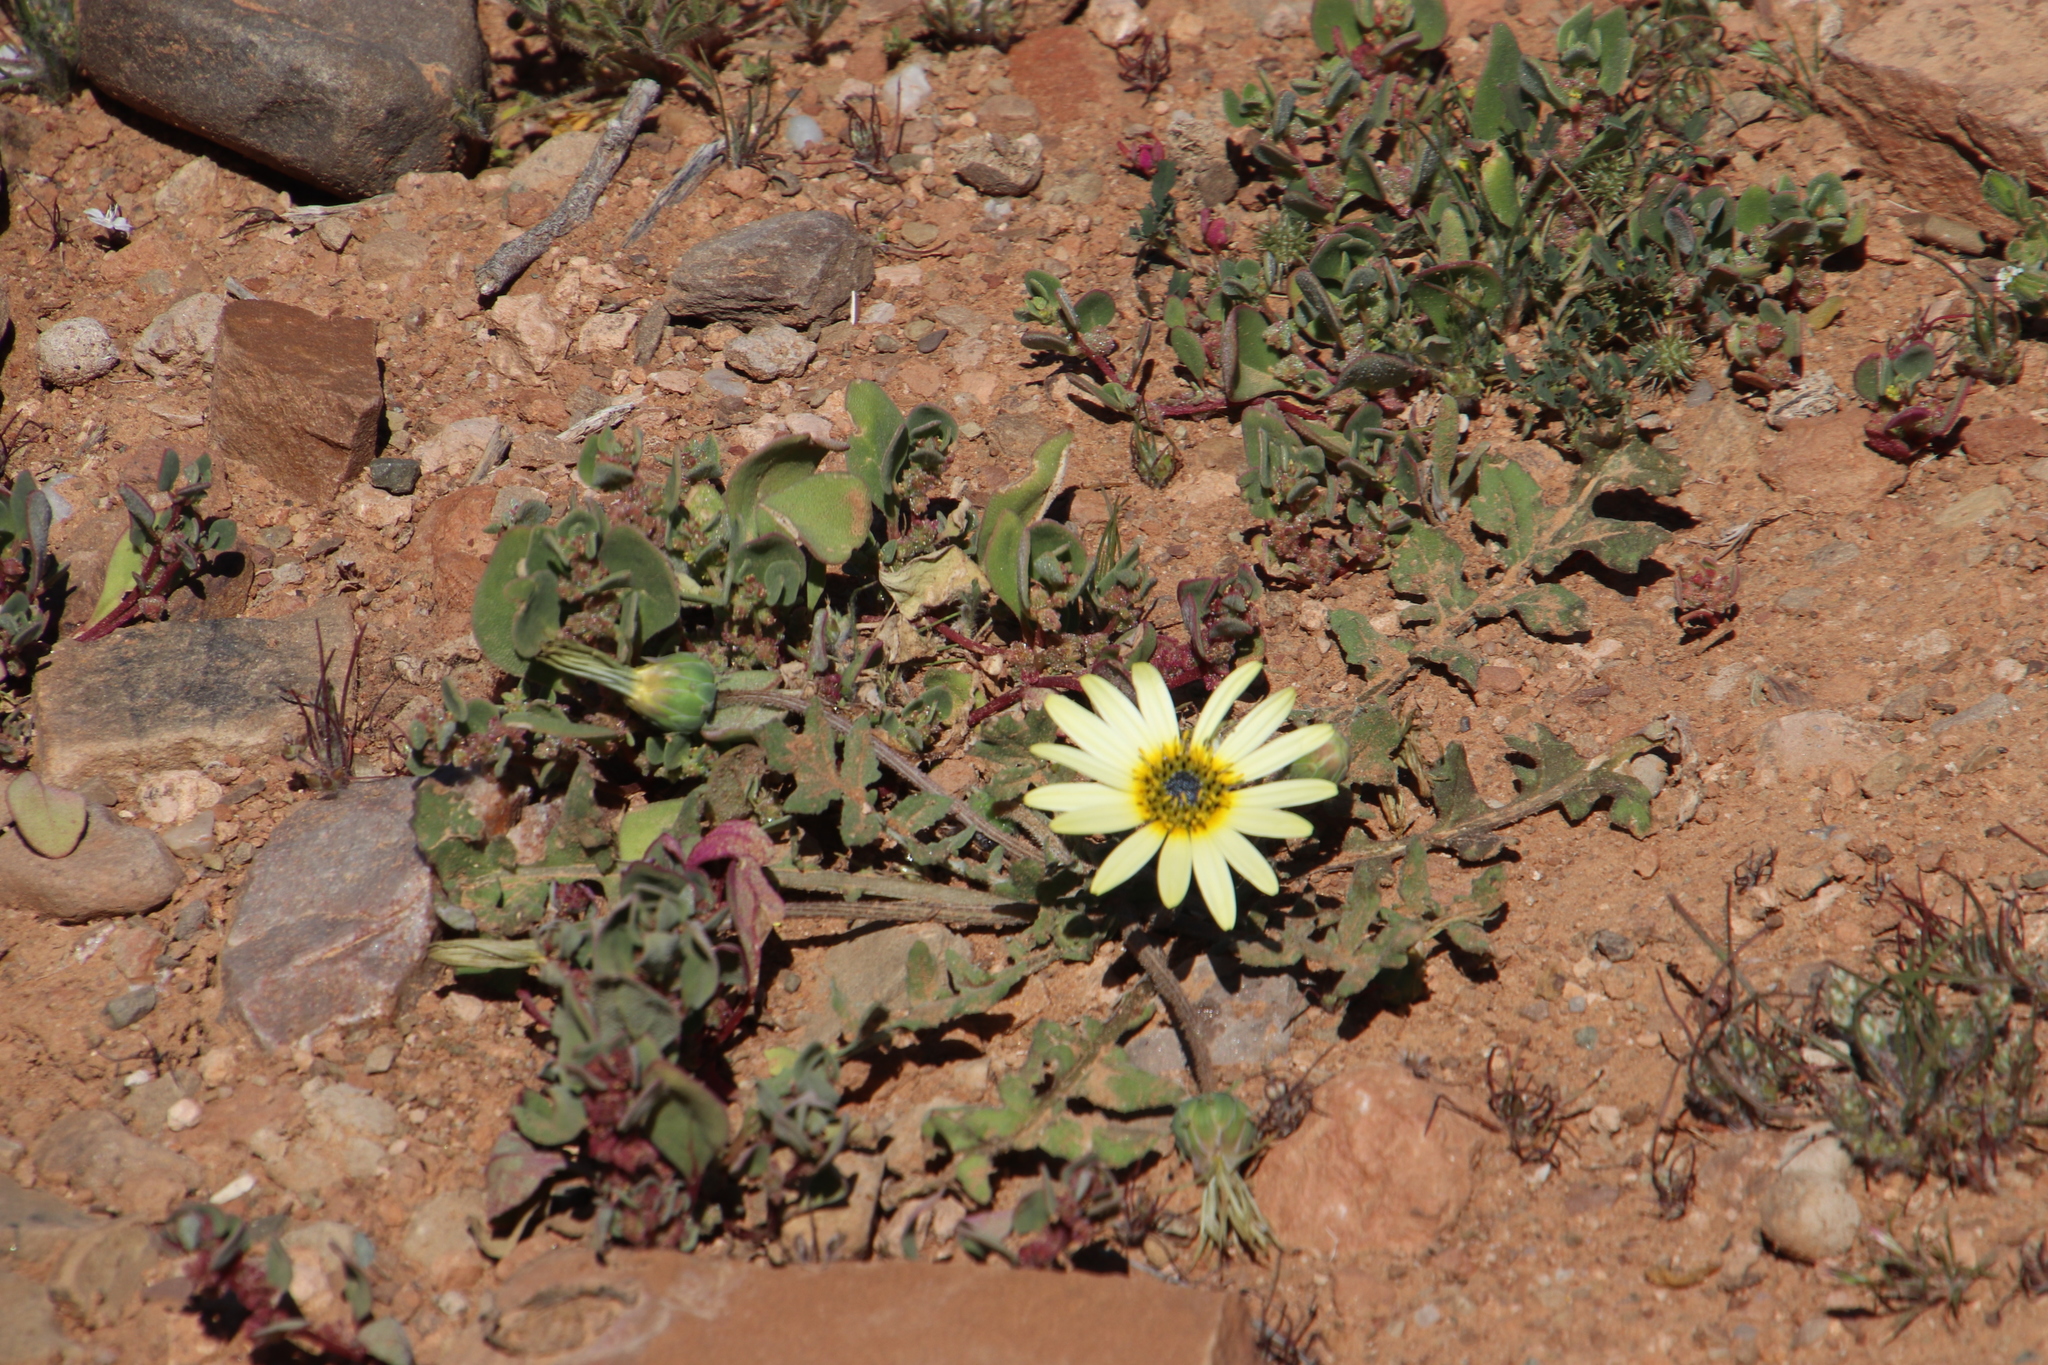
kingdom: Plantae
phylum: Tracheophyta
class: Magnoliopsida
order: Asterales
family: Asteraceae
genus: Arctotheca
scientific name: Arctotheca calendula
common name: Capeweed
